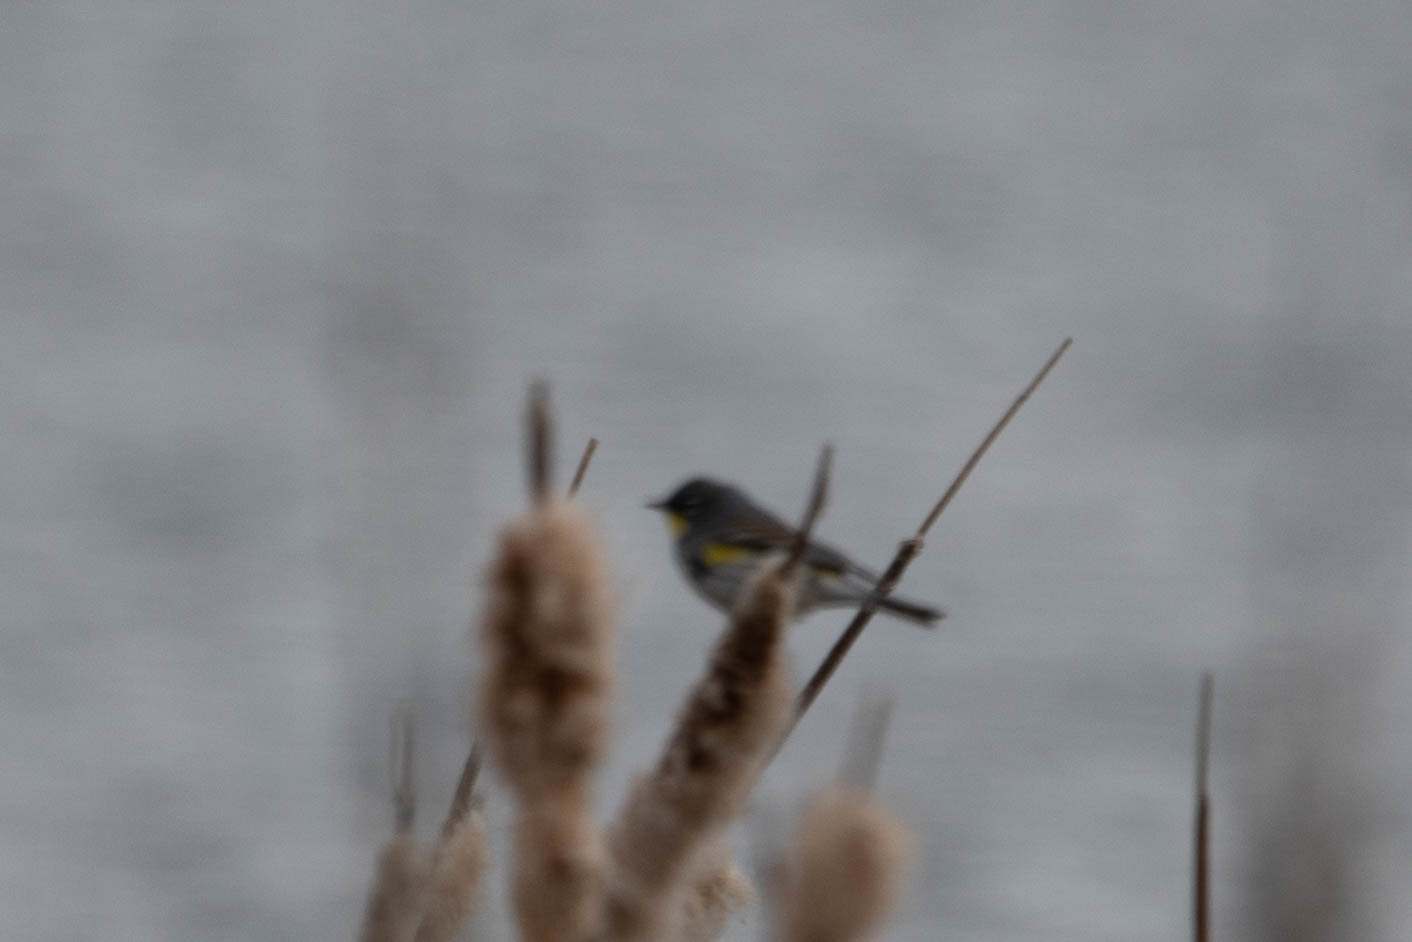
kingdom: Animalia
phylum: Chordata
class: Aves
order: Passeriformes
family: Parulidae
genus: Setophaga
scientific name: Setophaga auduboni
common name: Audubon's warbler
